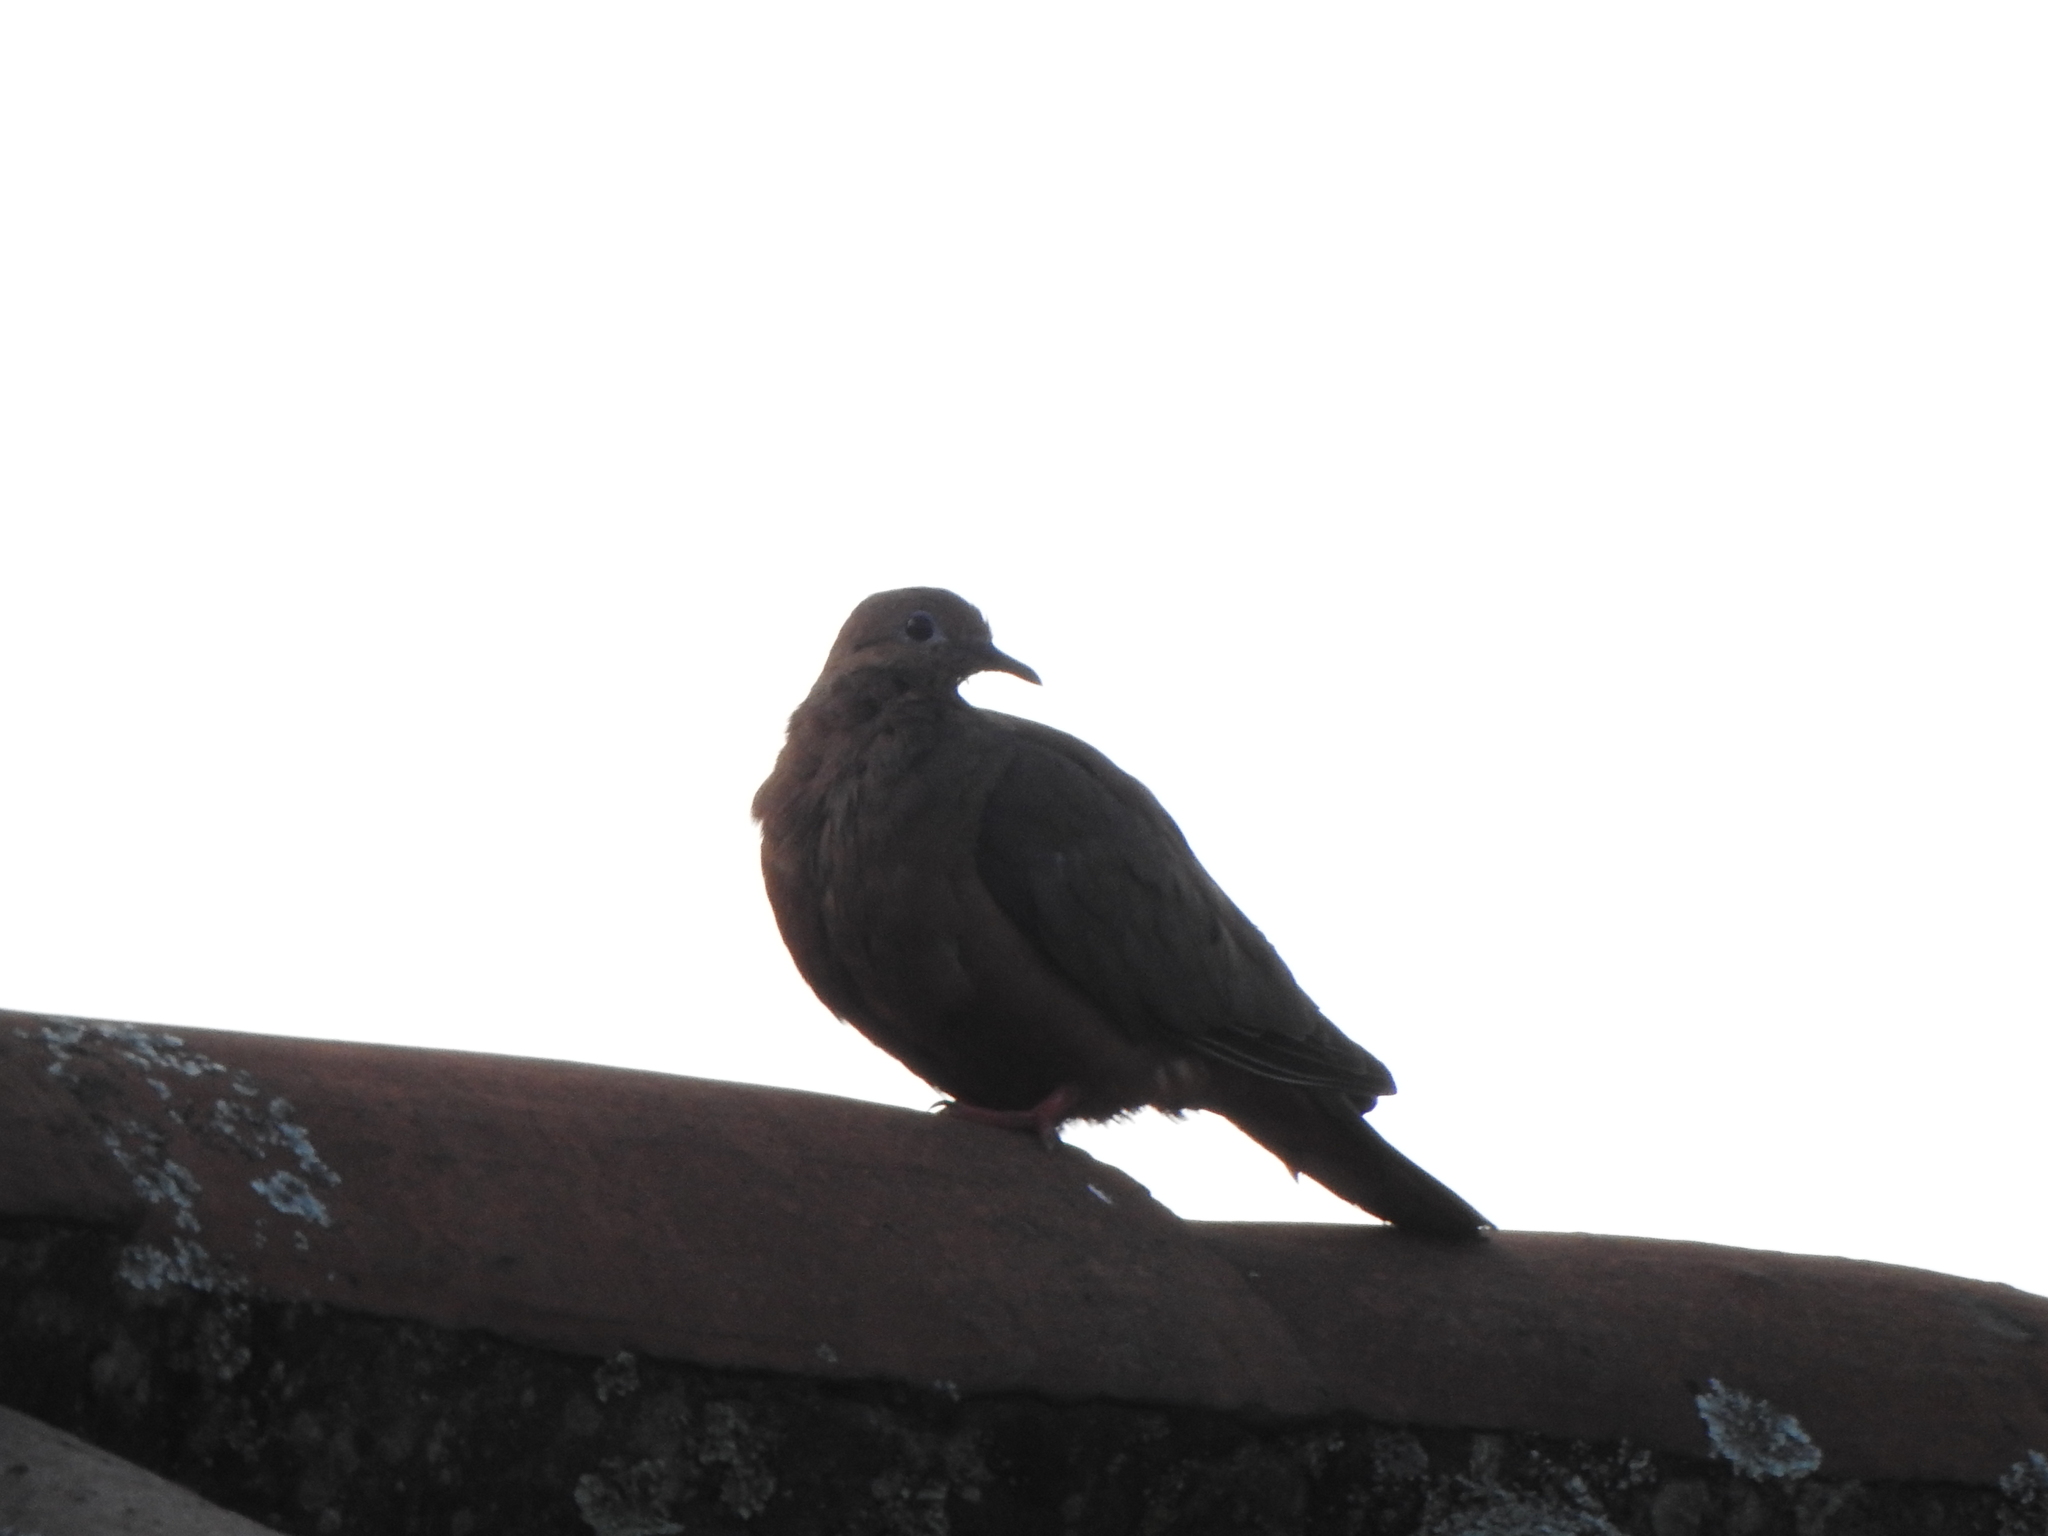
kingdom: Animalia
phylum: Chordata
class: Aves
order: Columbiformes
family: Columbidae
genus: Zenaida
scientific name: Zenaida auriculata
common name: Eared dove
